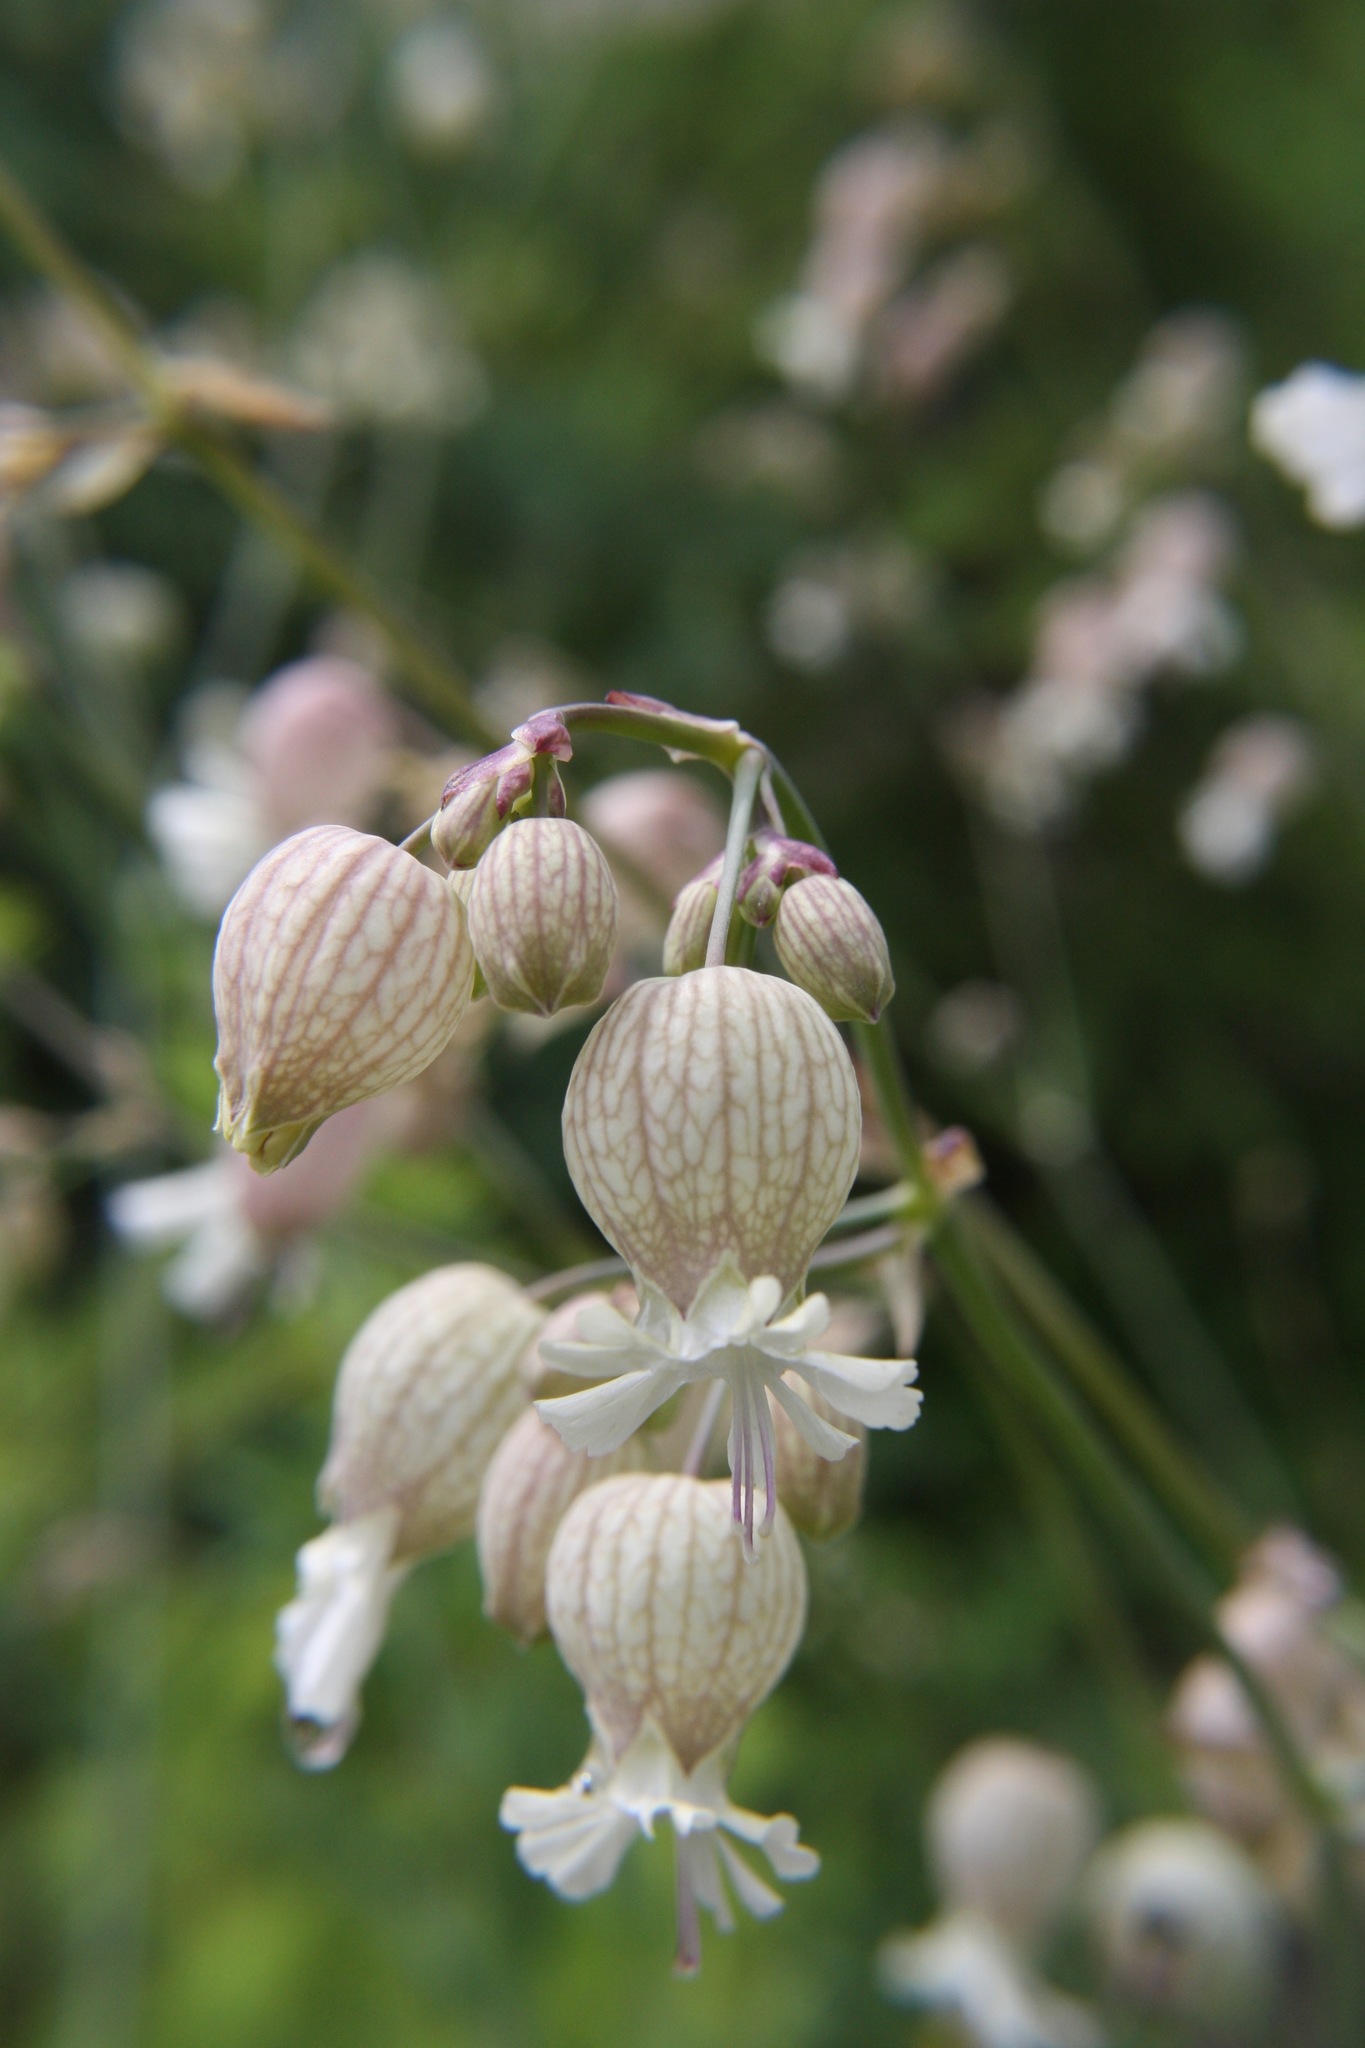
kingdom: Plantae
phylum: Tracheophyta
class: Magnoliopsida
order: Caryophyllales
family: Caryophyllaceae
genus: Silene
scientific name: Silene vulgaris
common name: Bladder campion
